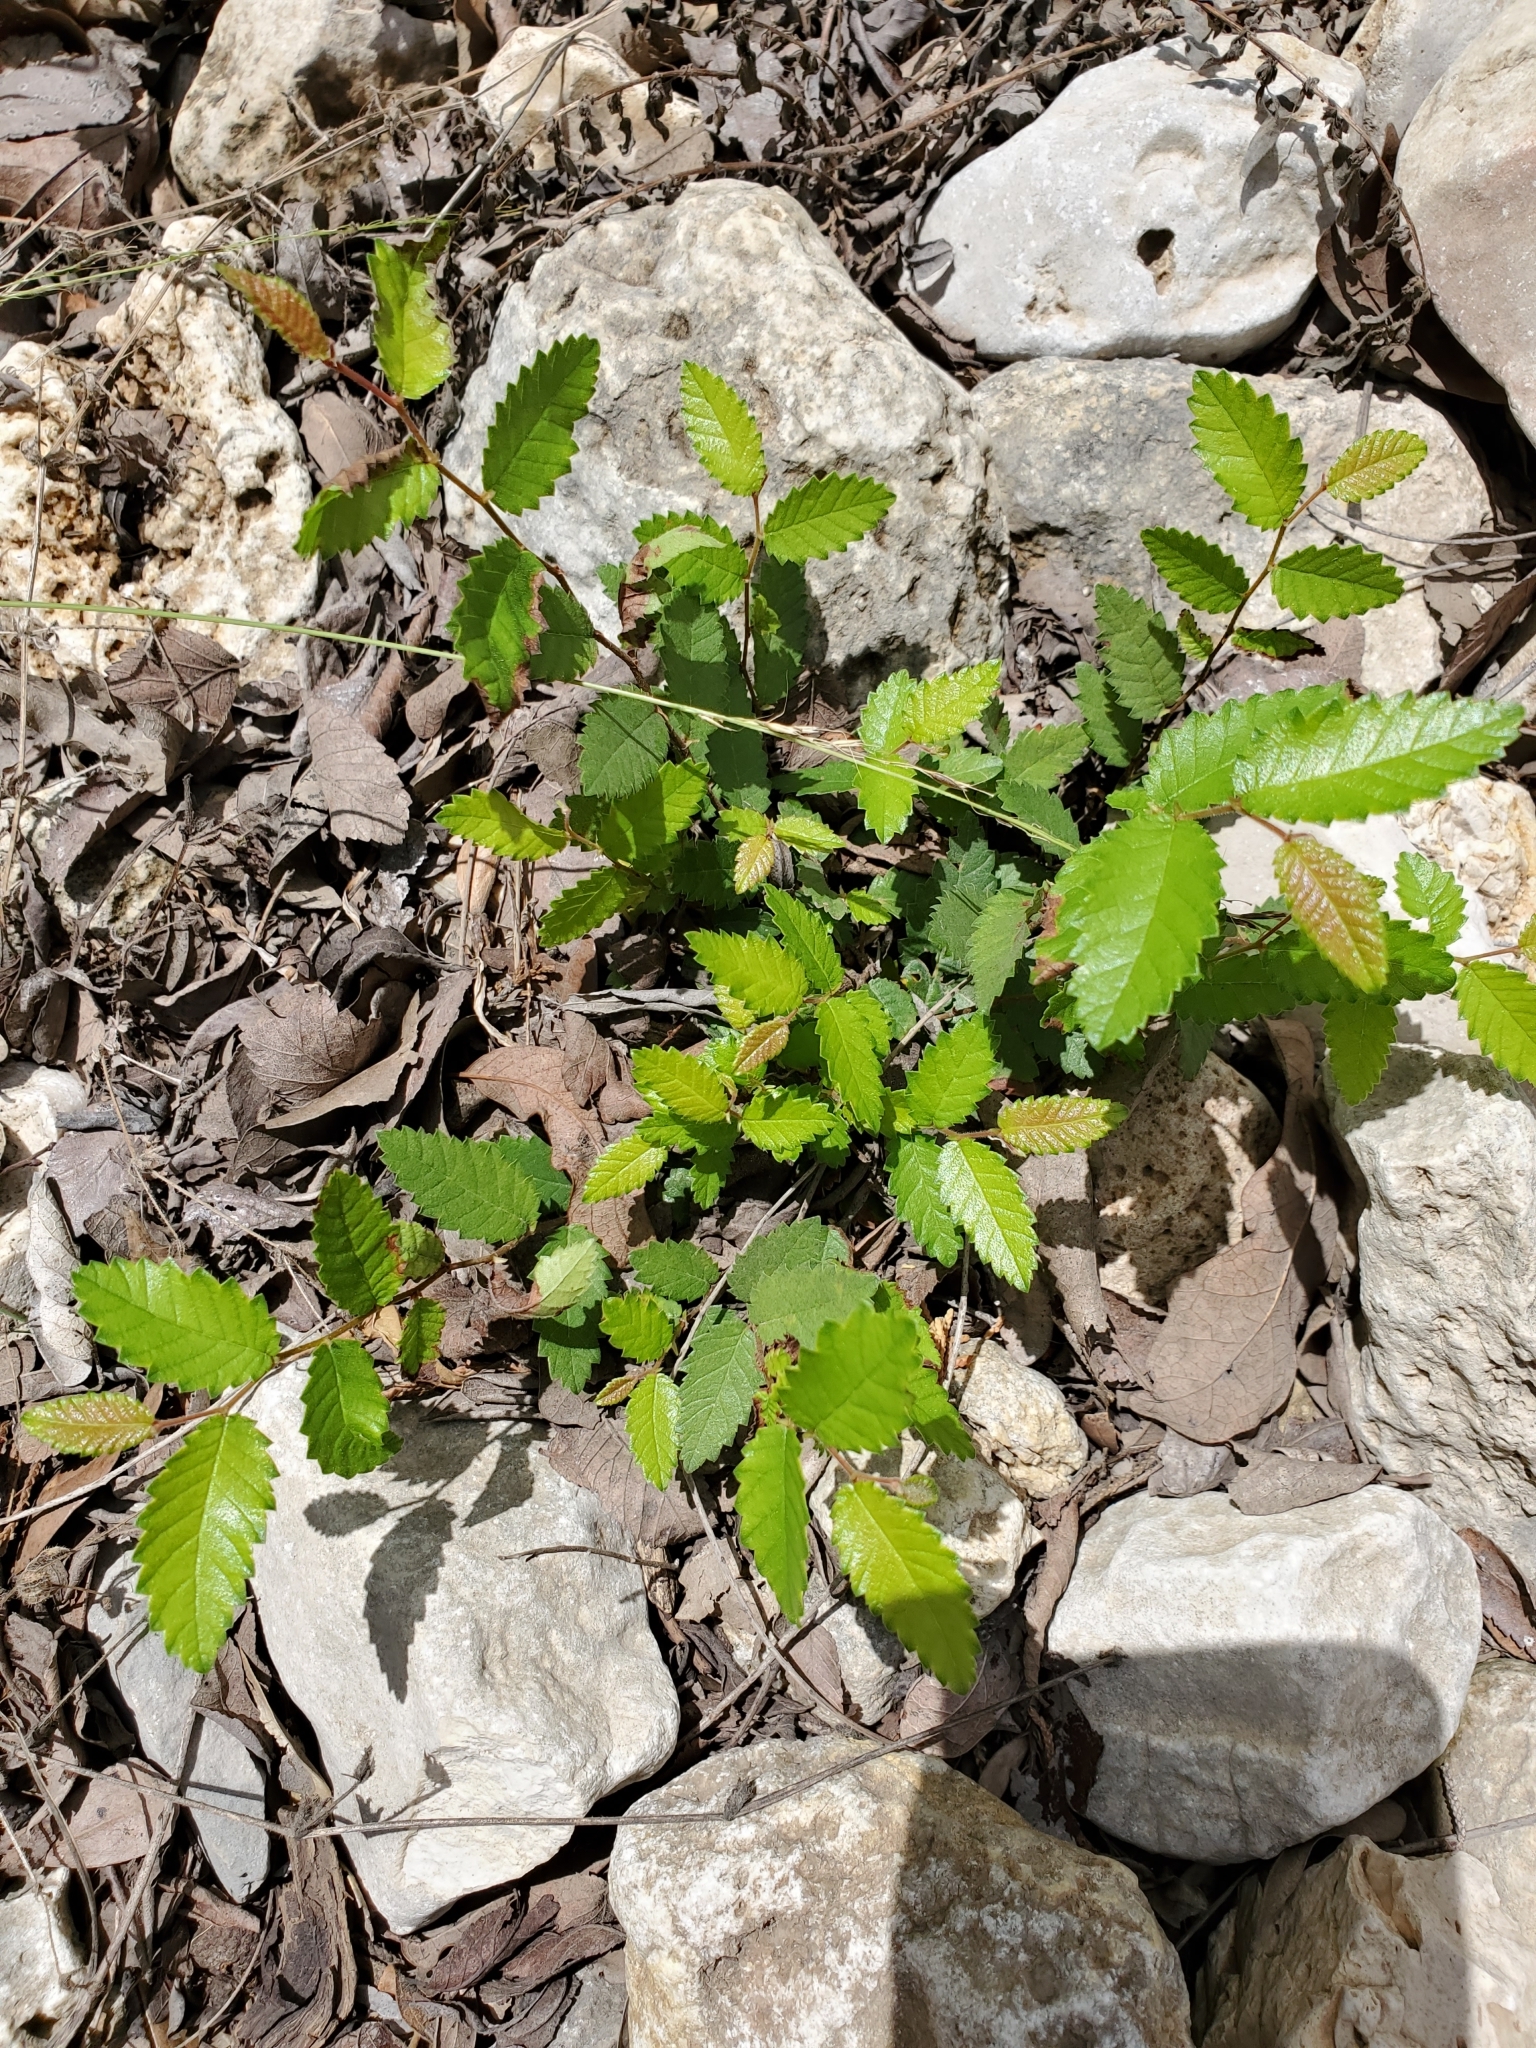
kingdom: Plantae
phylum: Tracheophyta
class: Magnoliopsida
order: Rosales
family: Ulmaceae
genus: Ulmus
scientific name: Ulmus crassifolia
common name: Basket elm
